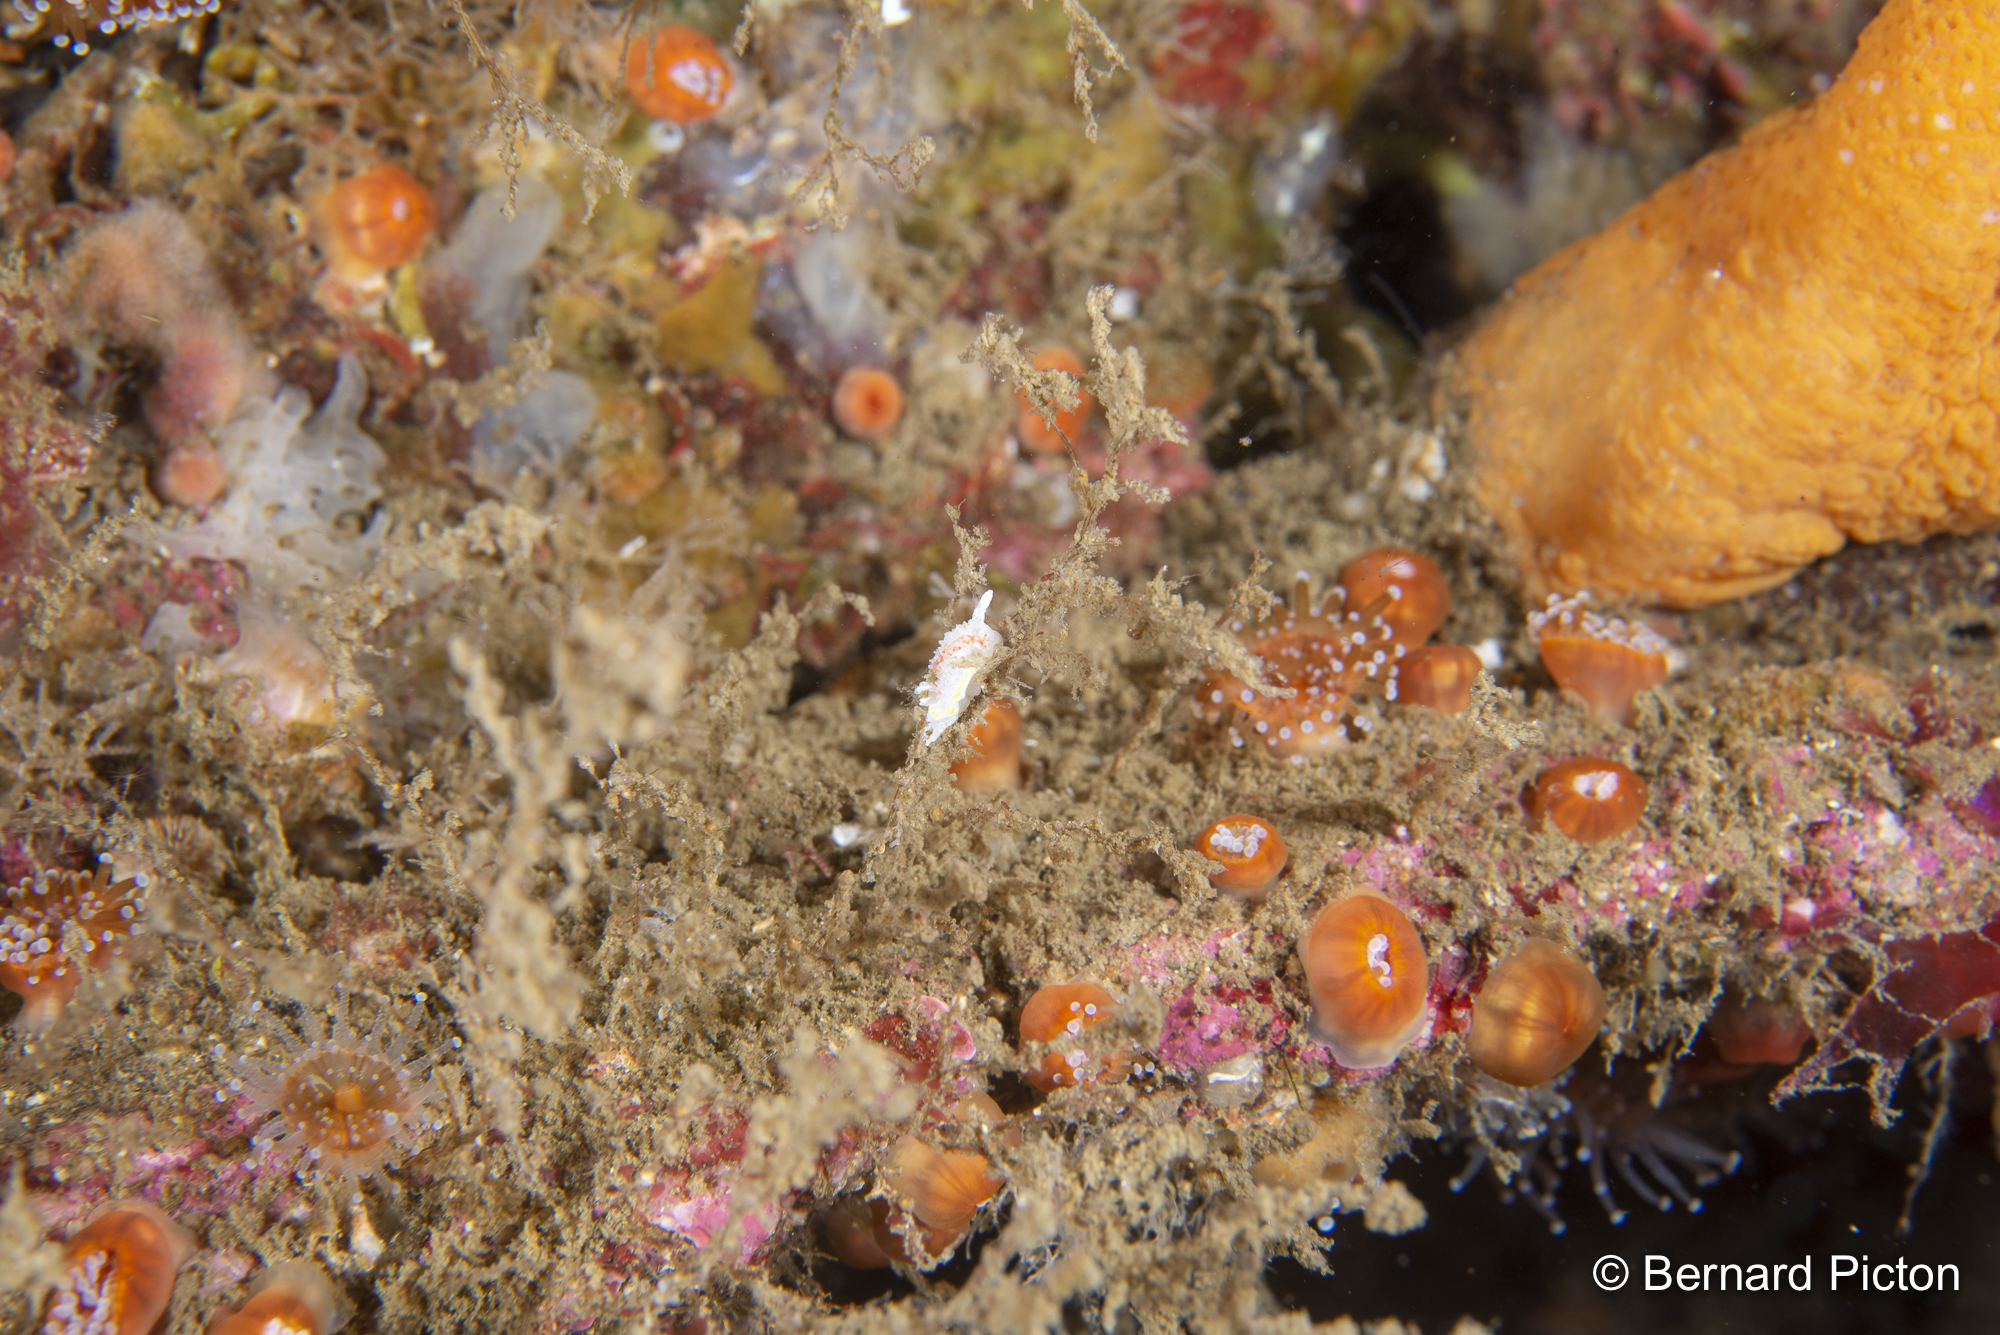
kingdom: Animalia
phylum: Mollusca
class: Gastropoda
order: Nudibranchia
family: Calycidorididae
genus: Diaphorodoris
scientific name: Diaphorodoris luteocincta
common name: Fried egg nudibranch
